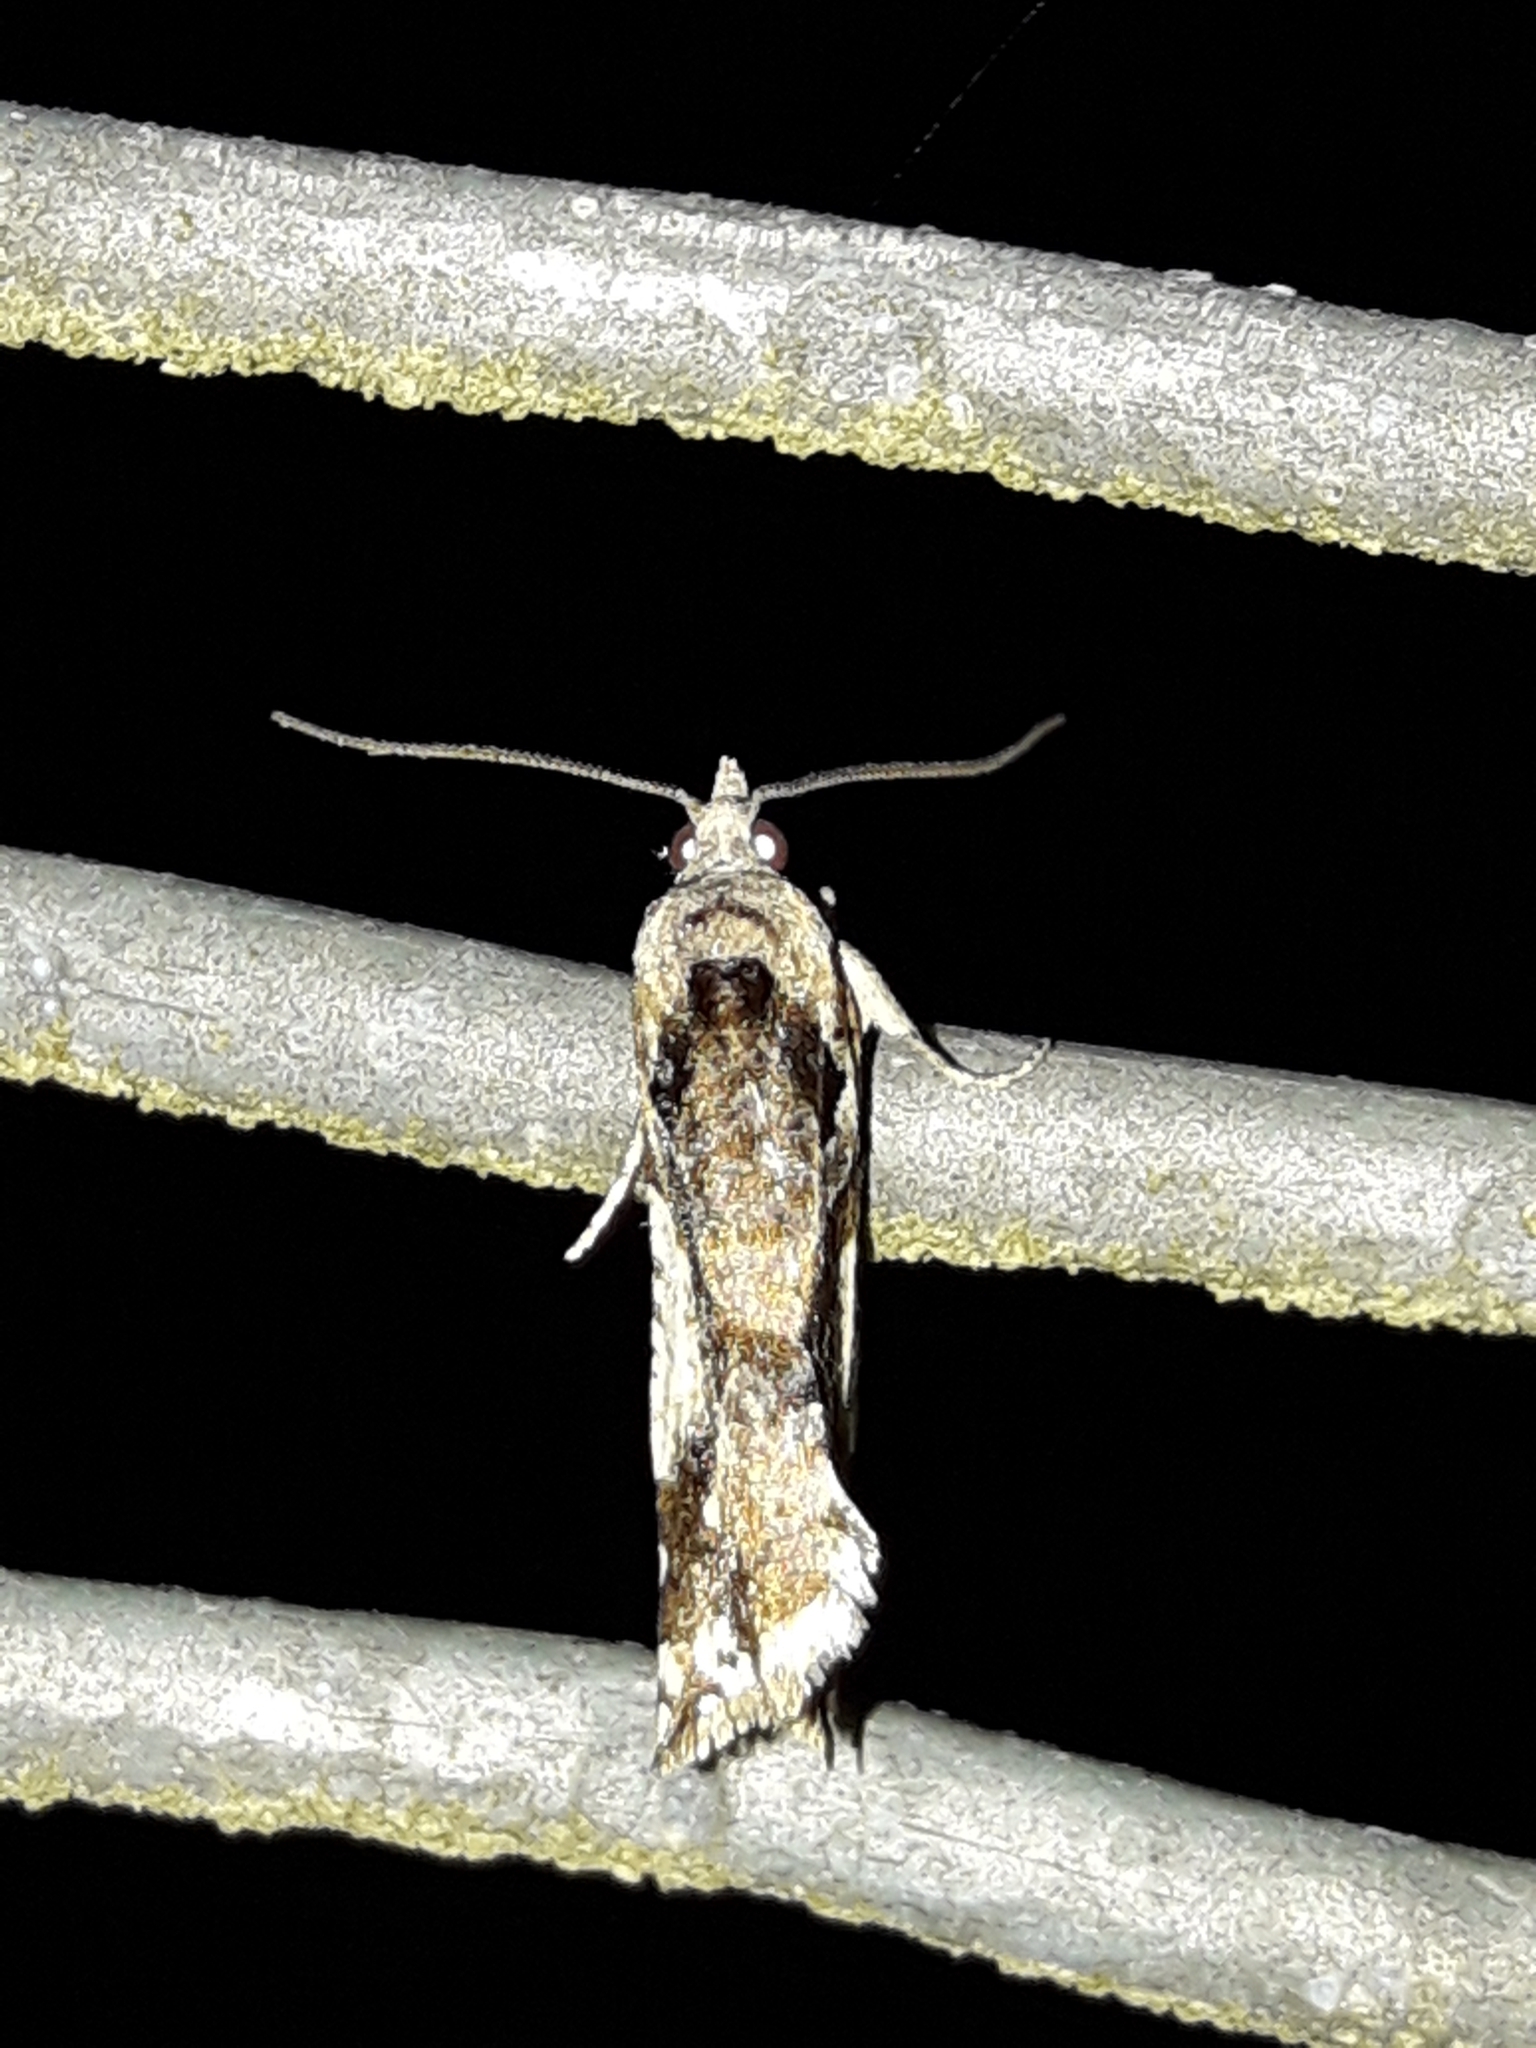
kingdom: Animalia
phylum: Arthropoda
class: Insecta
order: Lepidoptera
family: Tortricidae
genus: Pyrgotis
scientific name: Pyrgotis plagiatana
